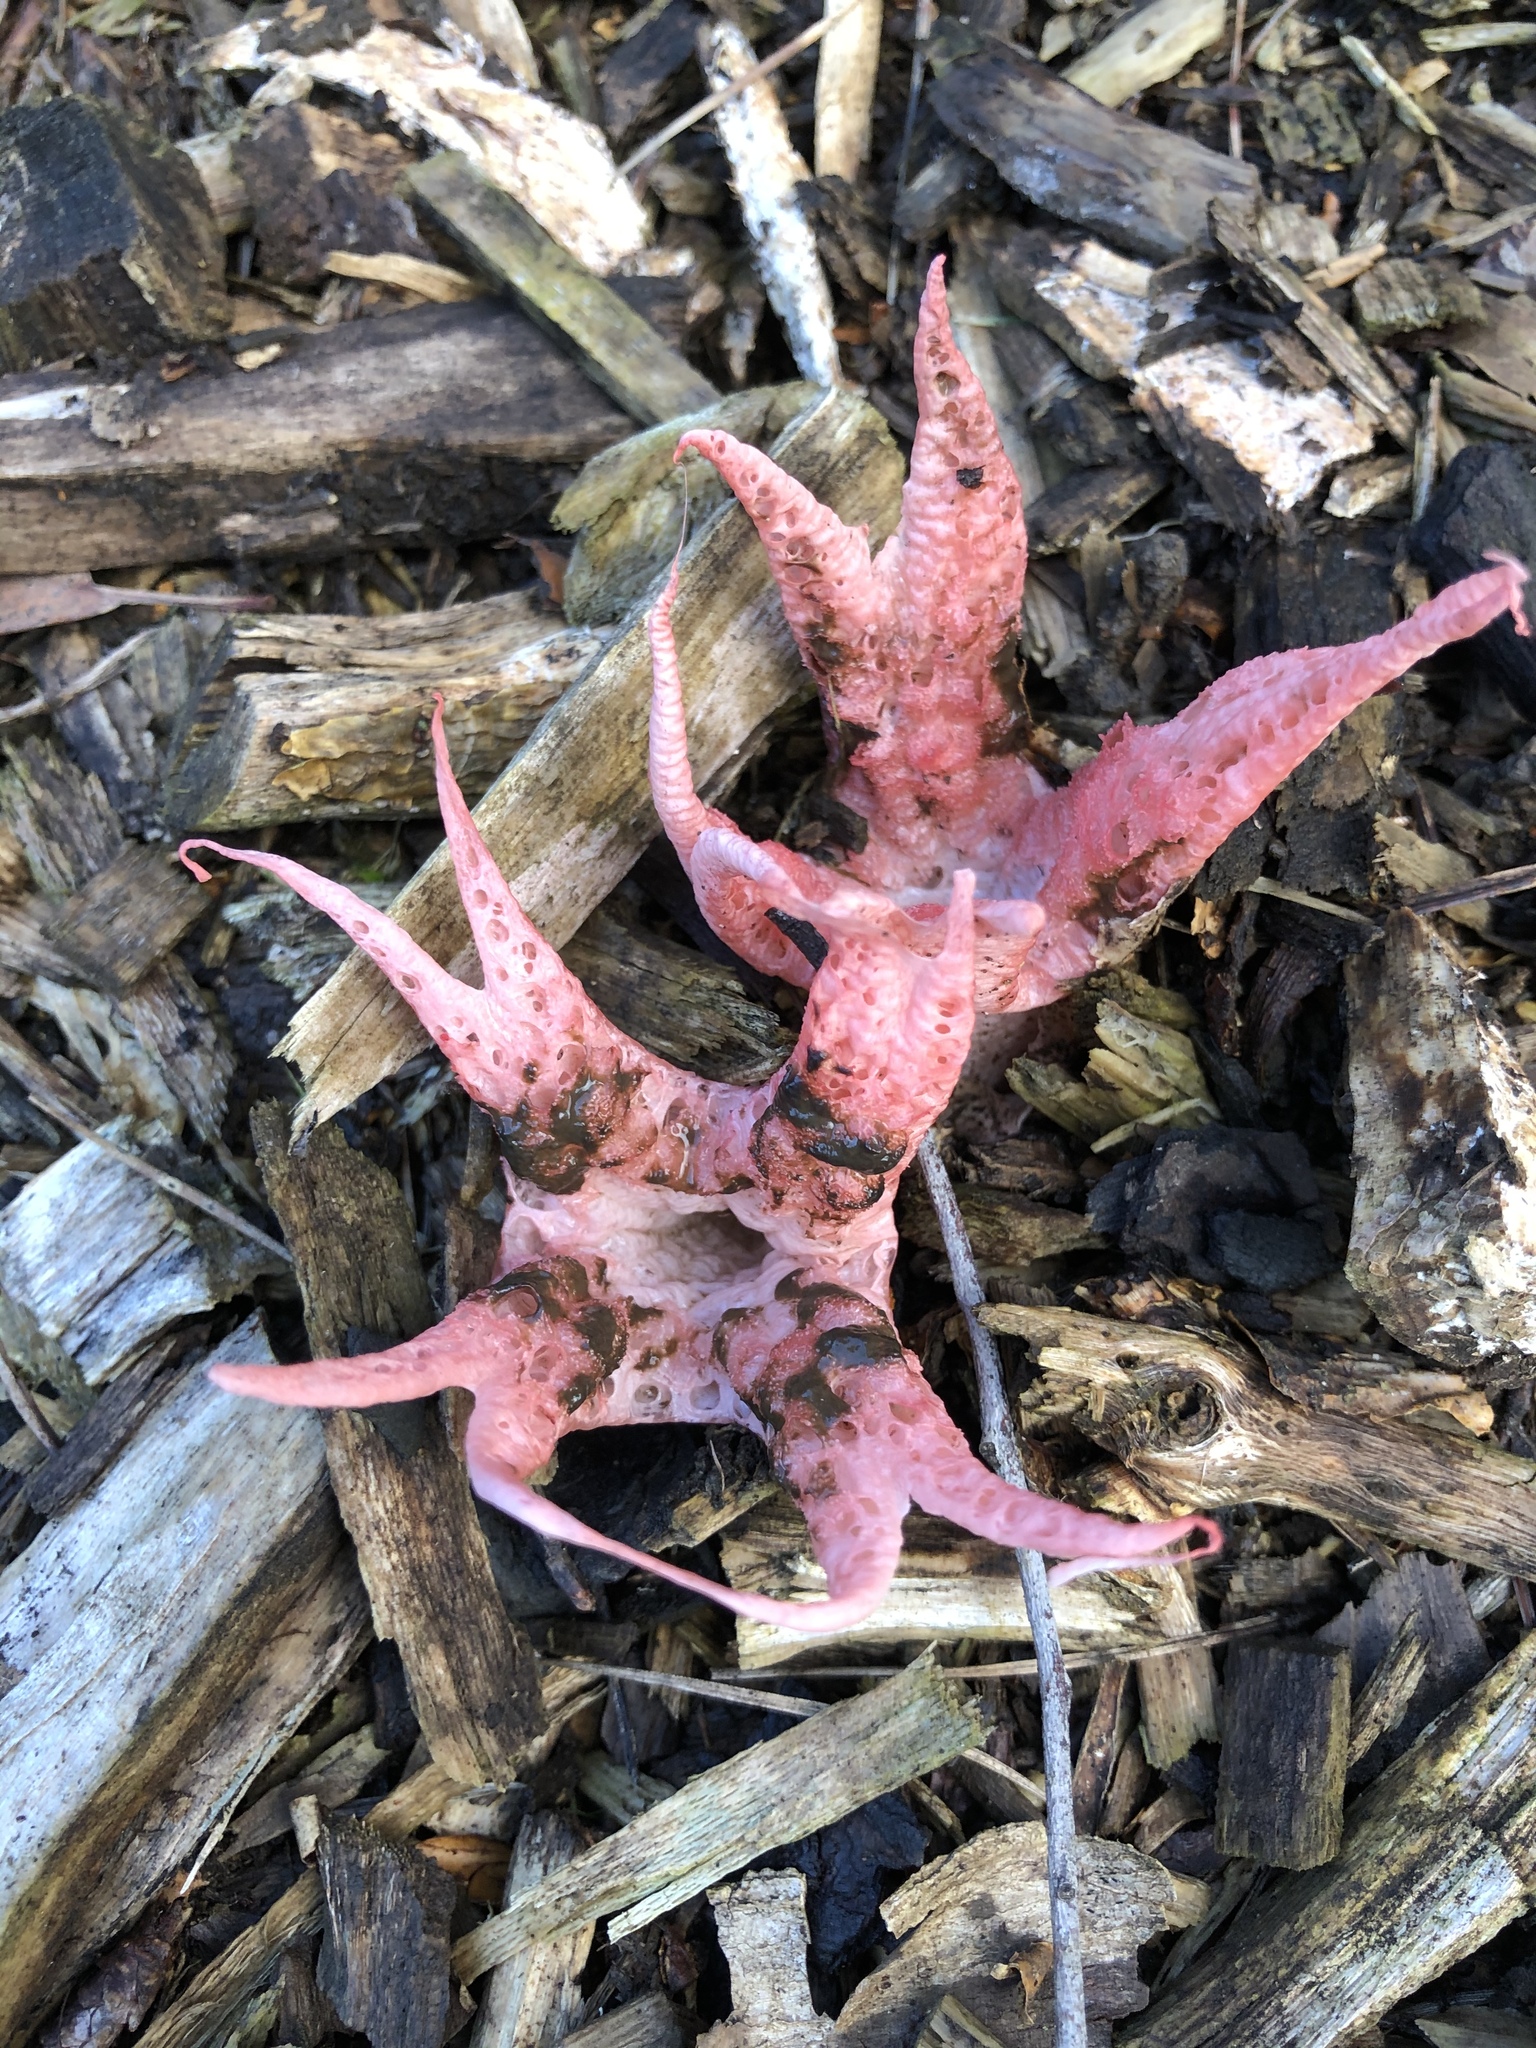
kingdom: Fungi
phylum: Basidiomycota
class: Agaricomycetes
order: Phallales
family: Phallaceae
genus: Clathrus
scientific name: Clathrus archeri
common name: Devil's fingers
